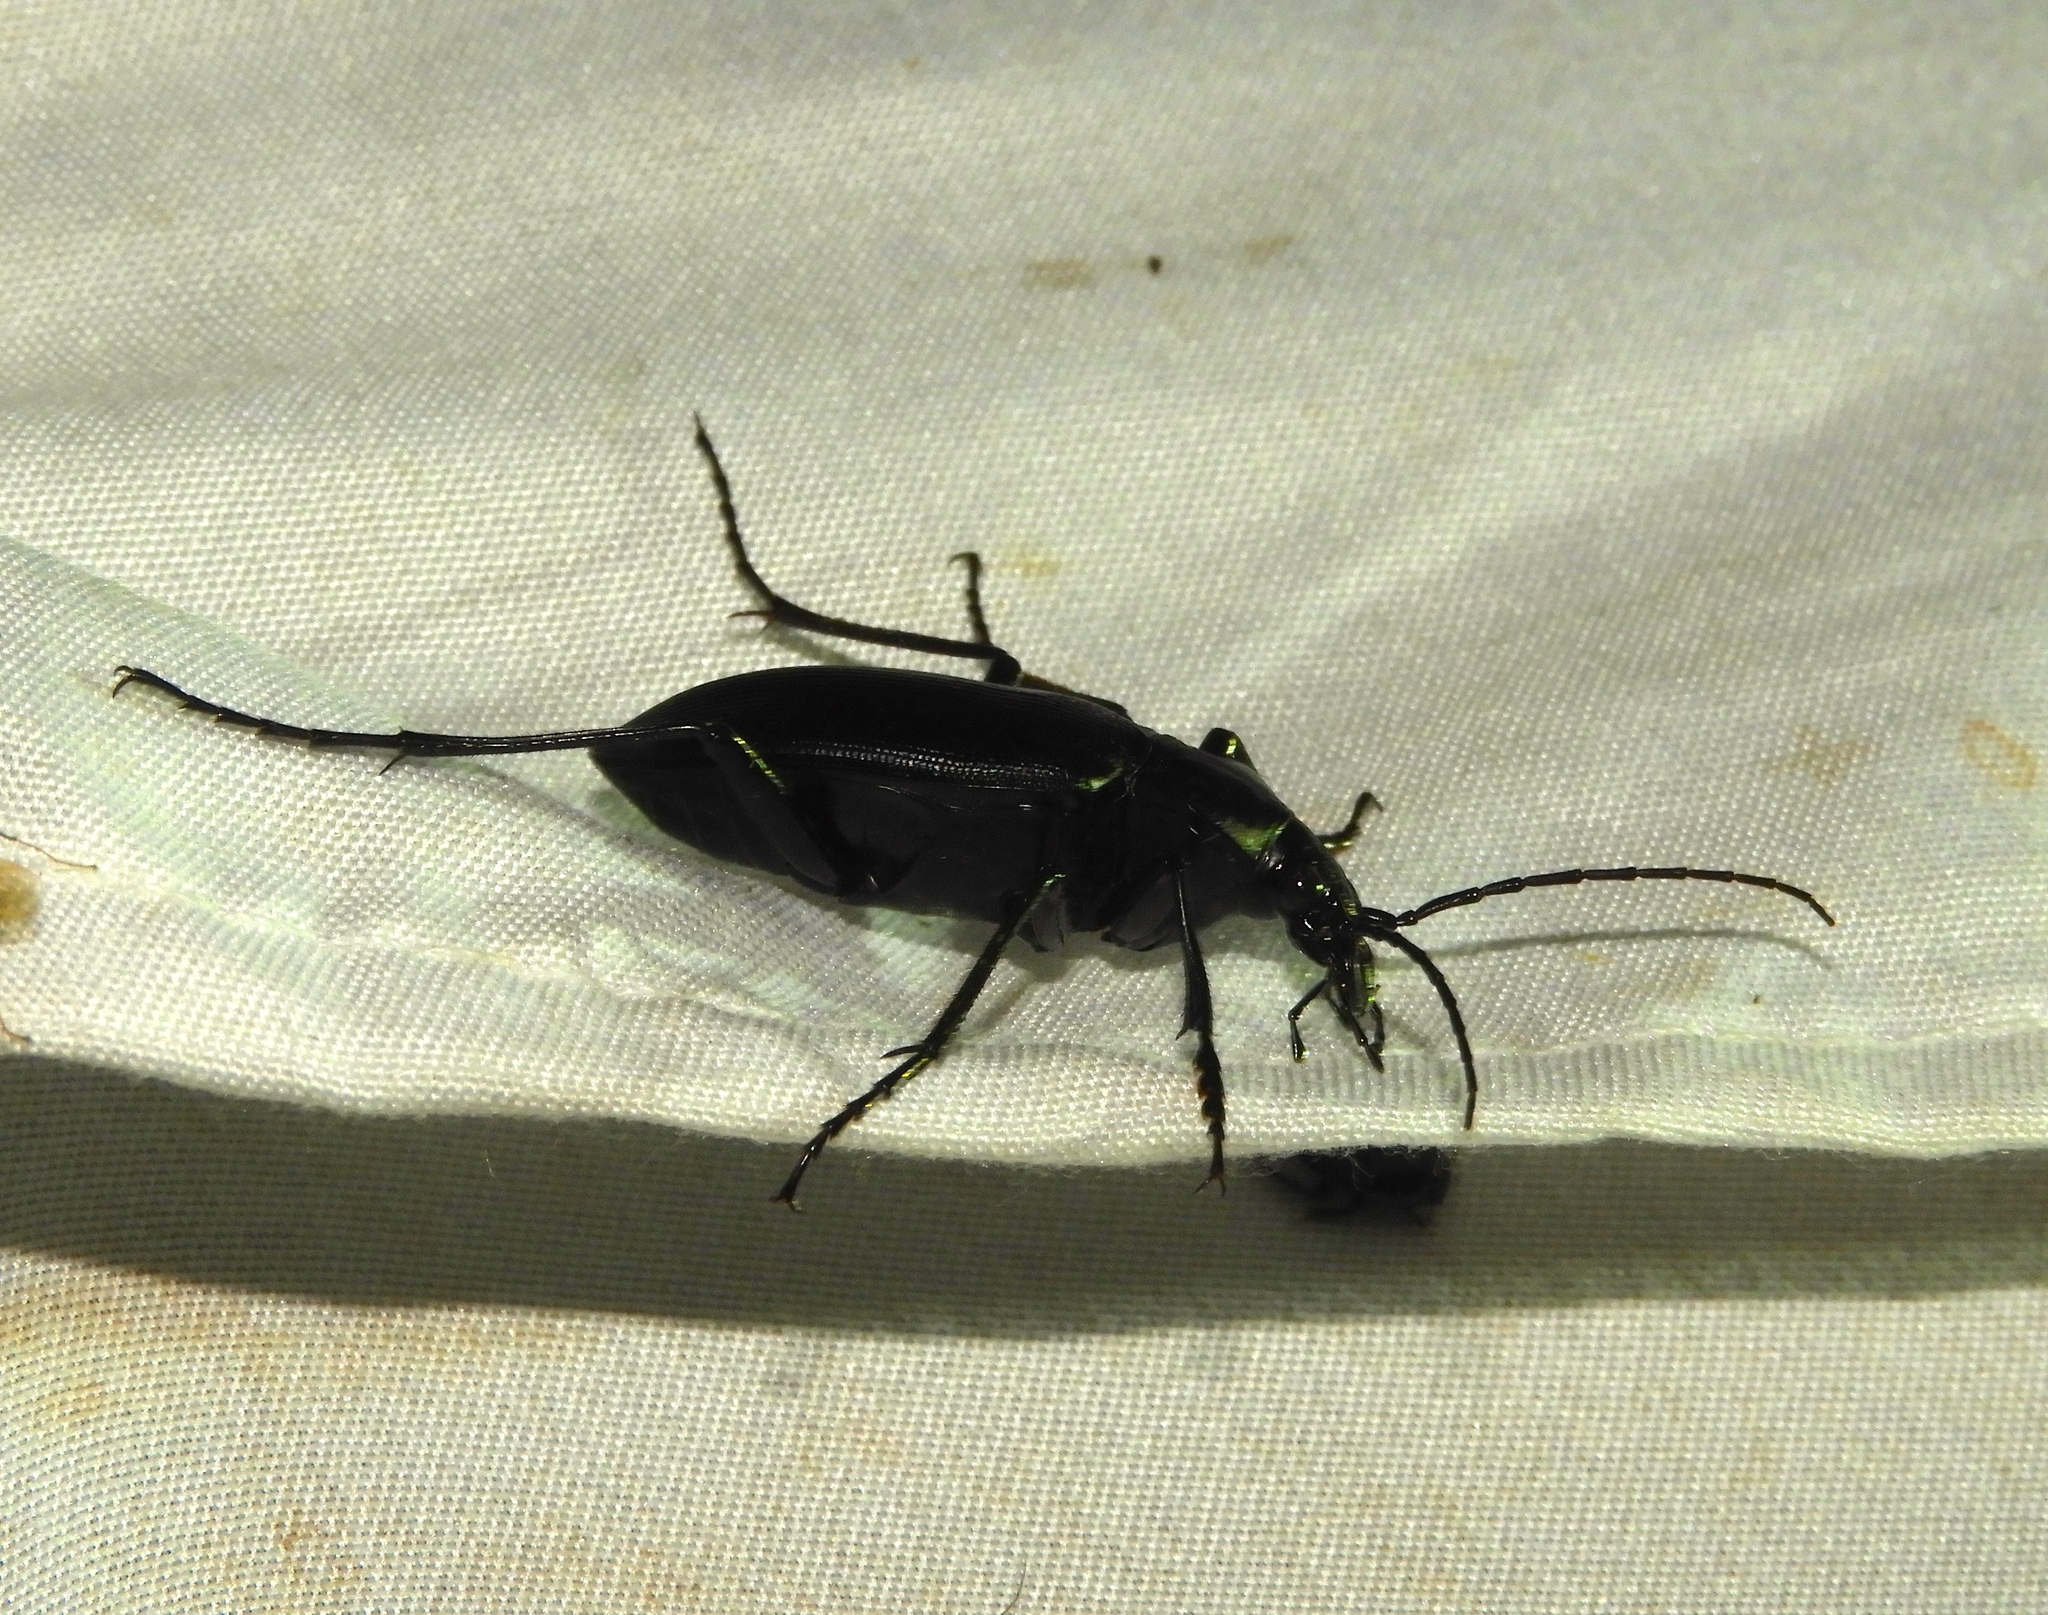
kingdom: Animalia
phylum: Arthropoda
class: Insecta
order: Coleoptera
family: Carabidae
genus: Calosoma
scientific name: Calosoma
